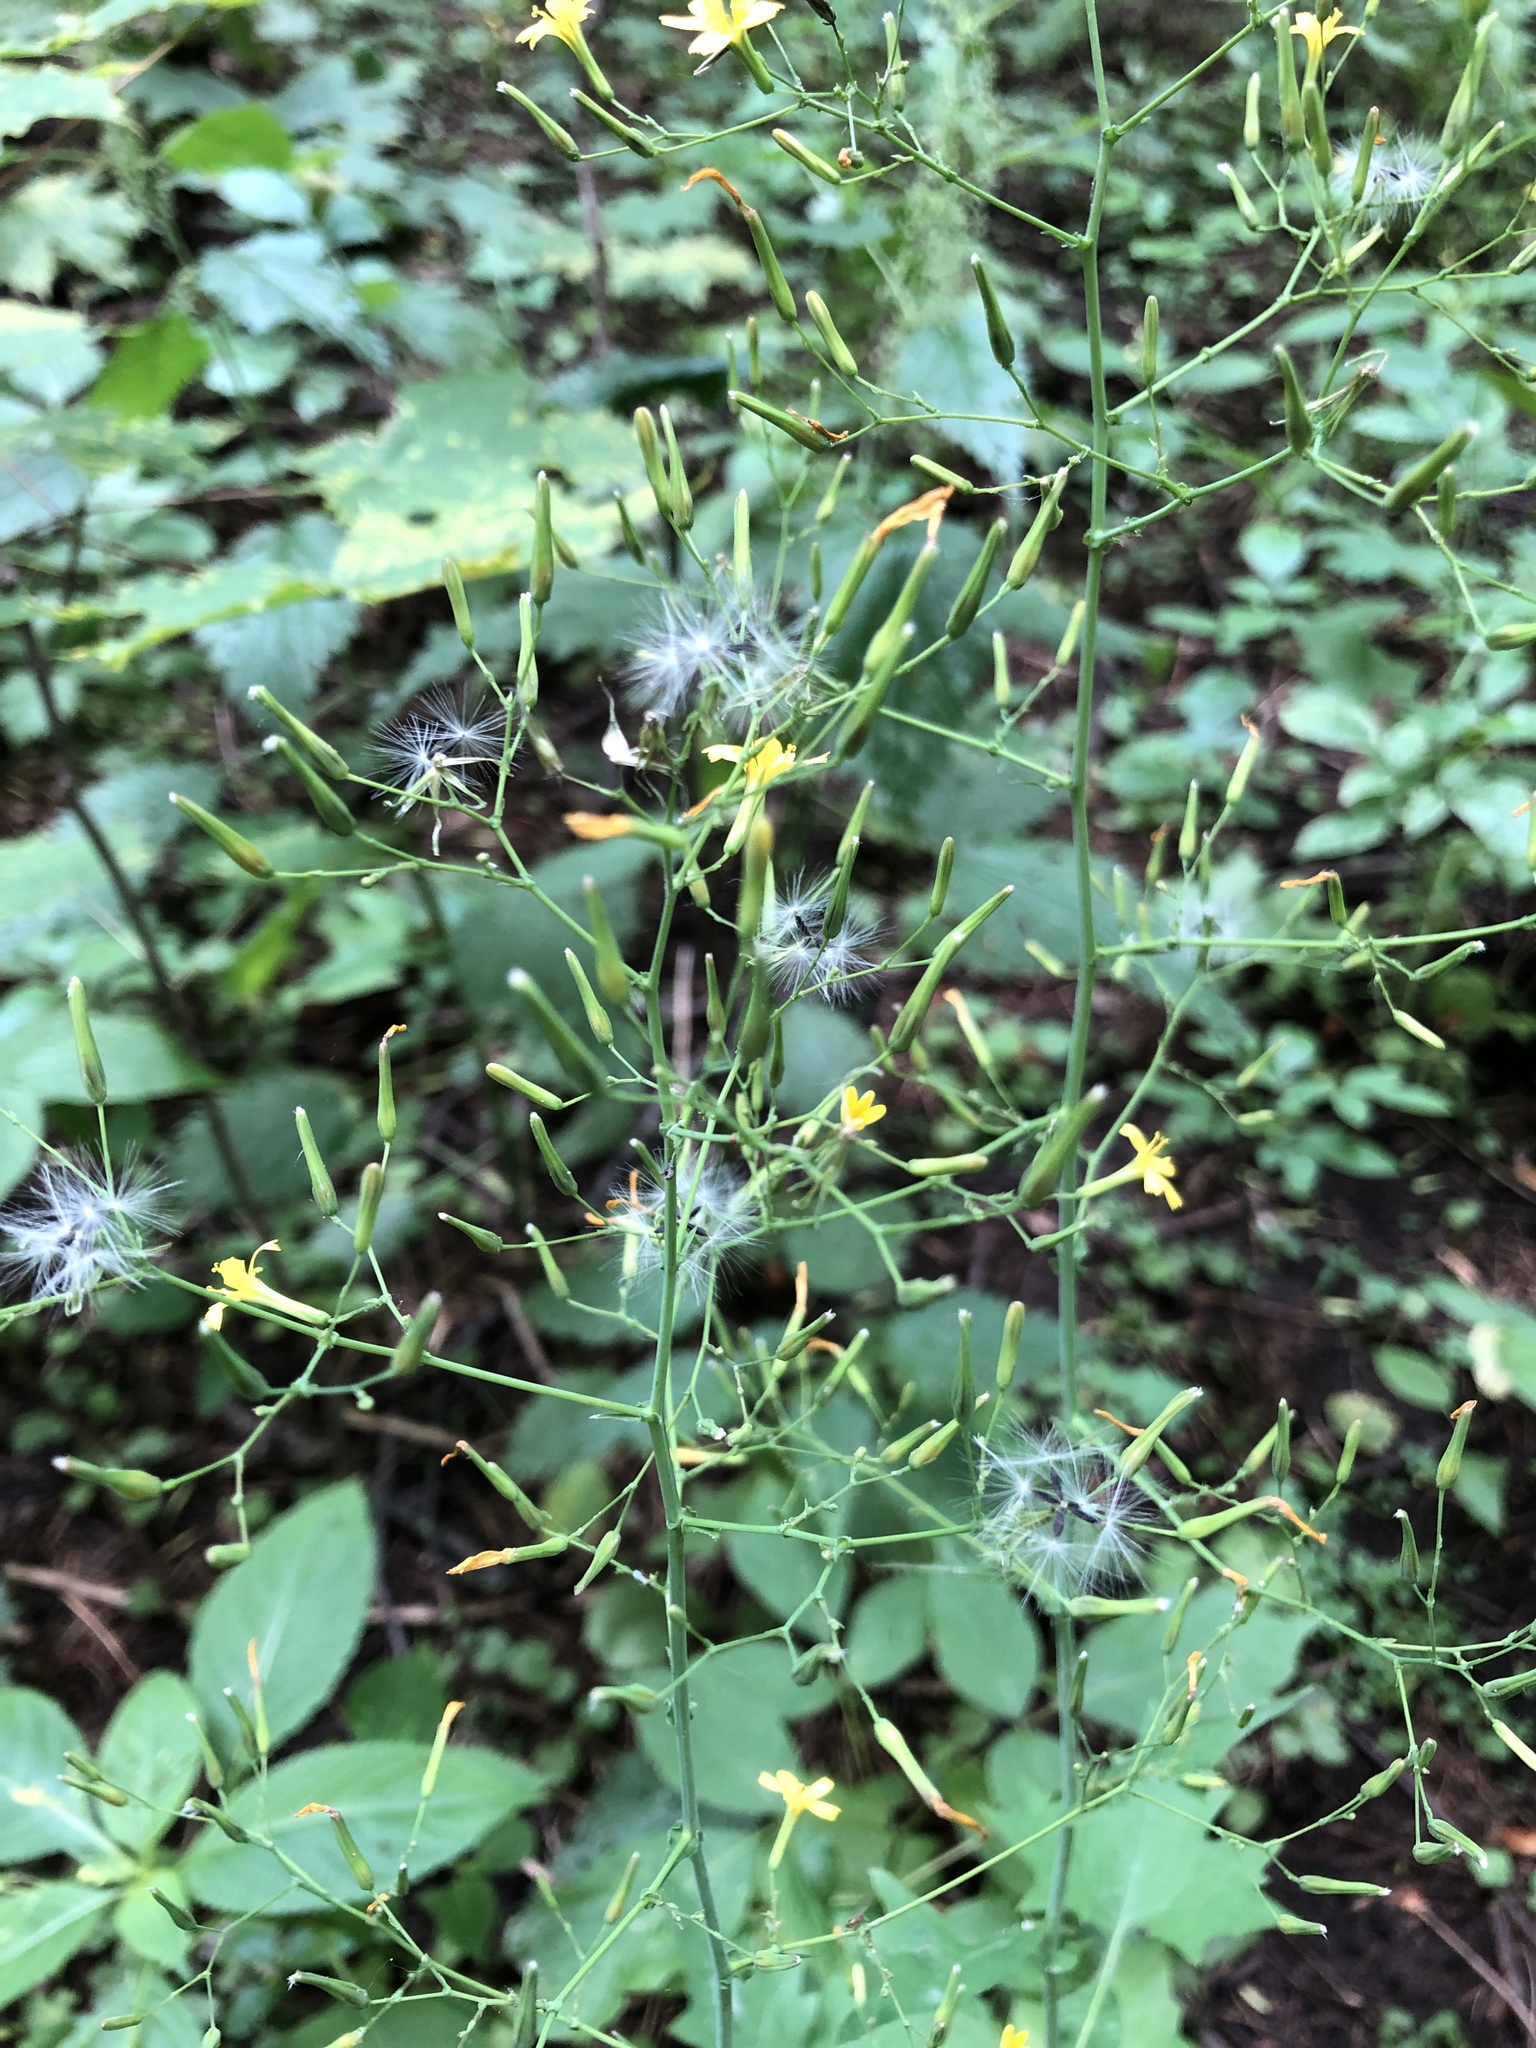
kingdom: Plantae
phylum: Tracheophyta
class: Magnoliopsida
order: Asterales
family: Asteraceae
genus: Mycelis
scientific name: Mycelis muralis
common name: Wall lettuce
